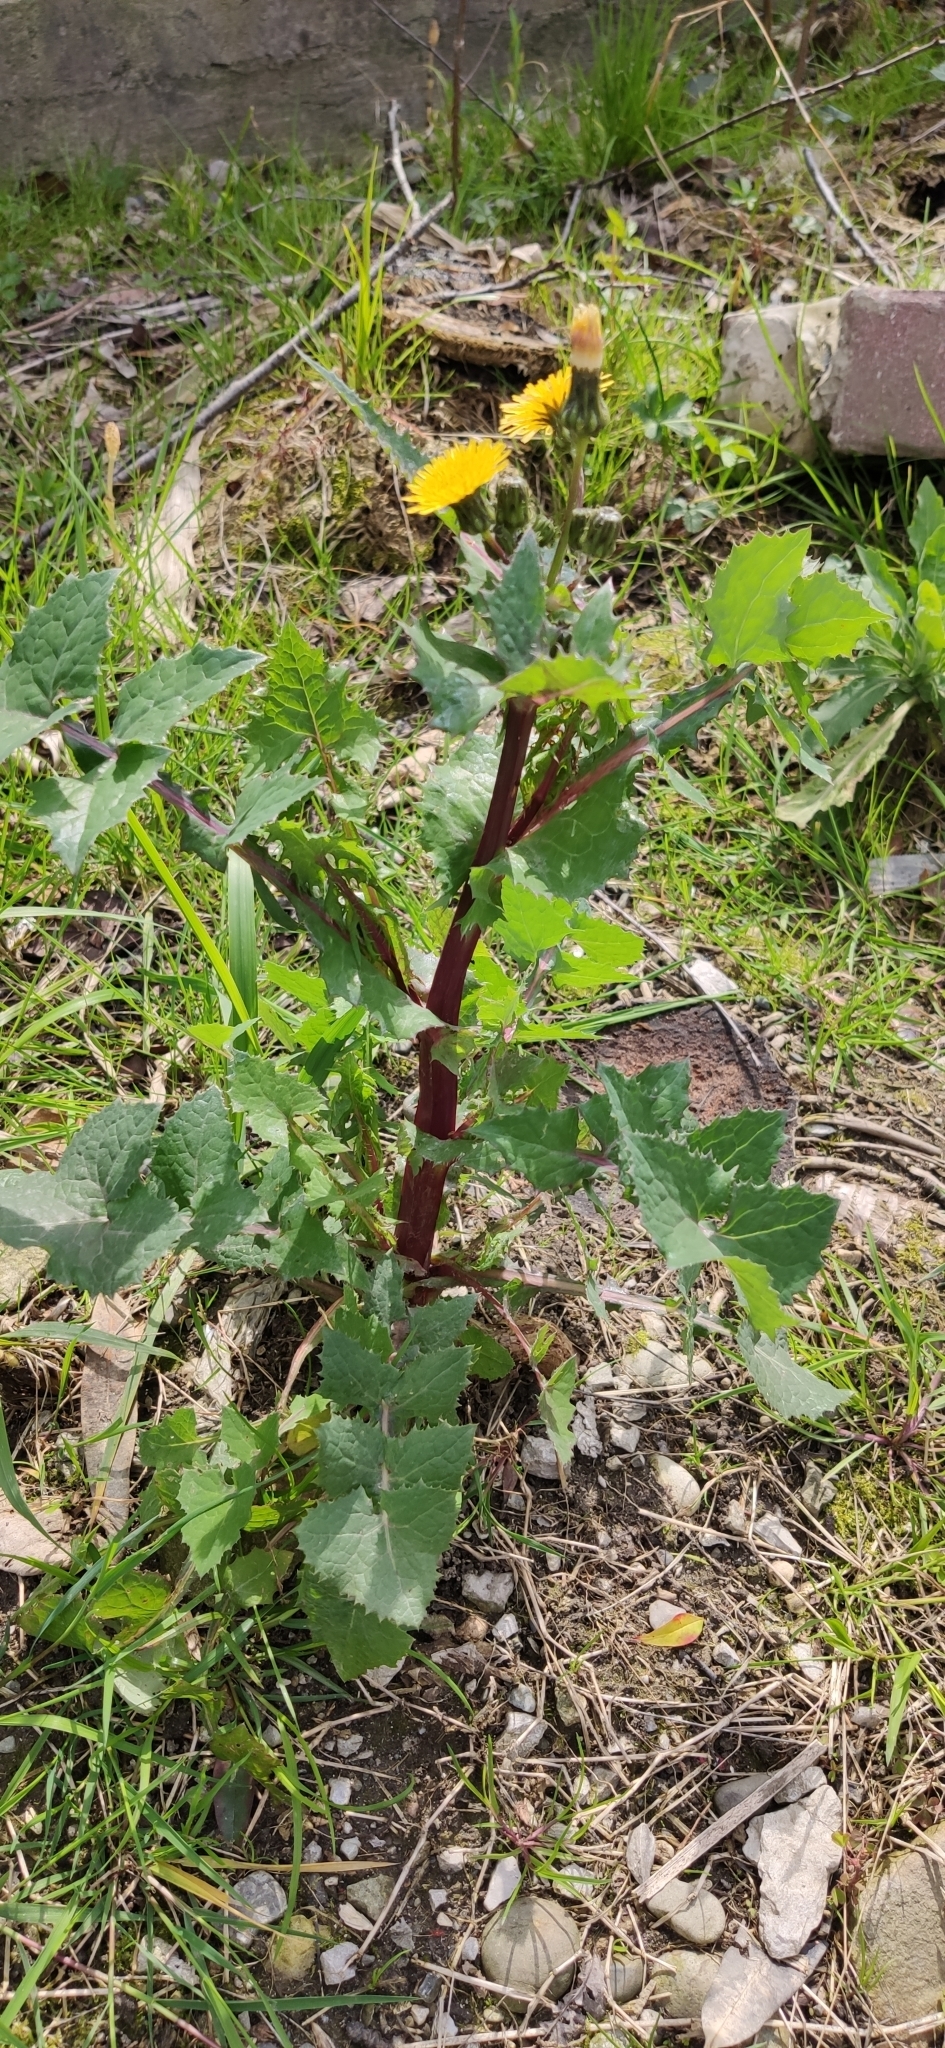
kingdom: Plantae
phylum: Tracheophyta
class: Magnoliopsida
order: Asterales
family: Asteraceae
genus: Sonchus
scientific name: Sonchus oleraceus
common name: Common sowthistle
